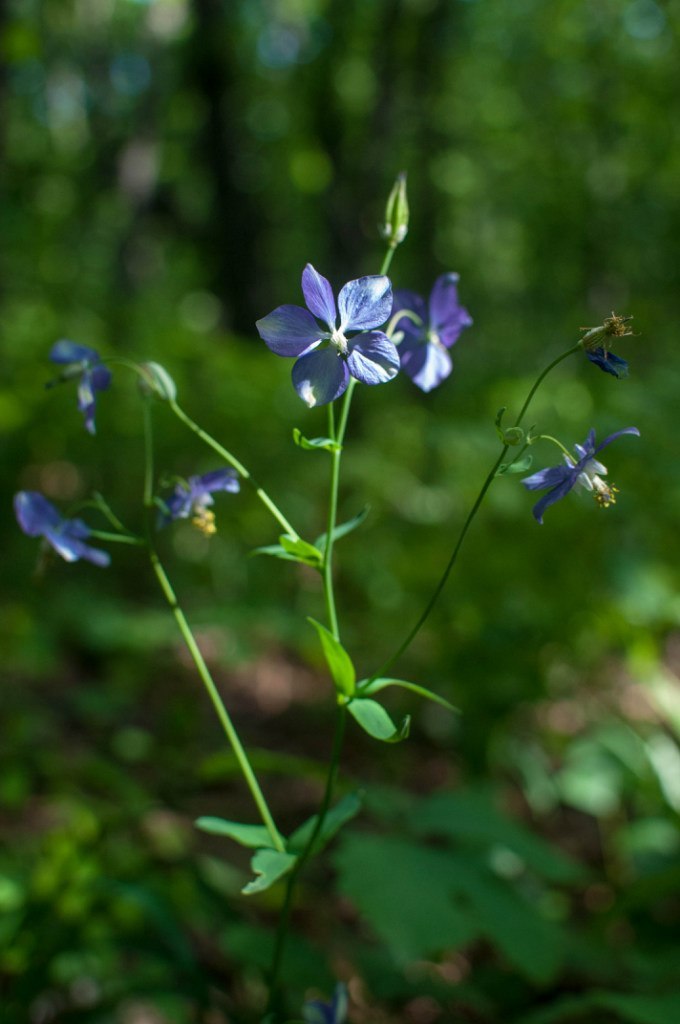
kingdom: Plantae
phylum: Tracheophyta
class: Magnoliopsida
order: Ranunculales
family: Ranunculaceae
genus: Aquilegia
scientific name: Aquilegia parviflora
